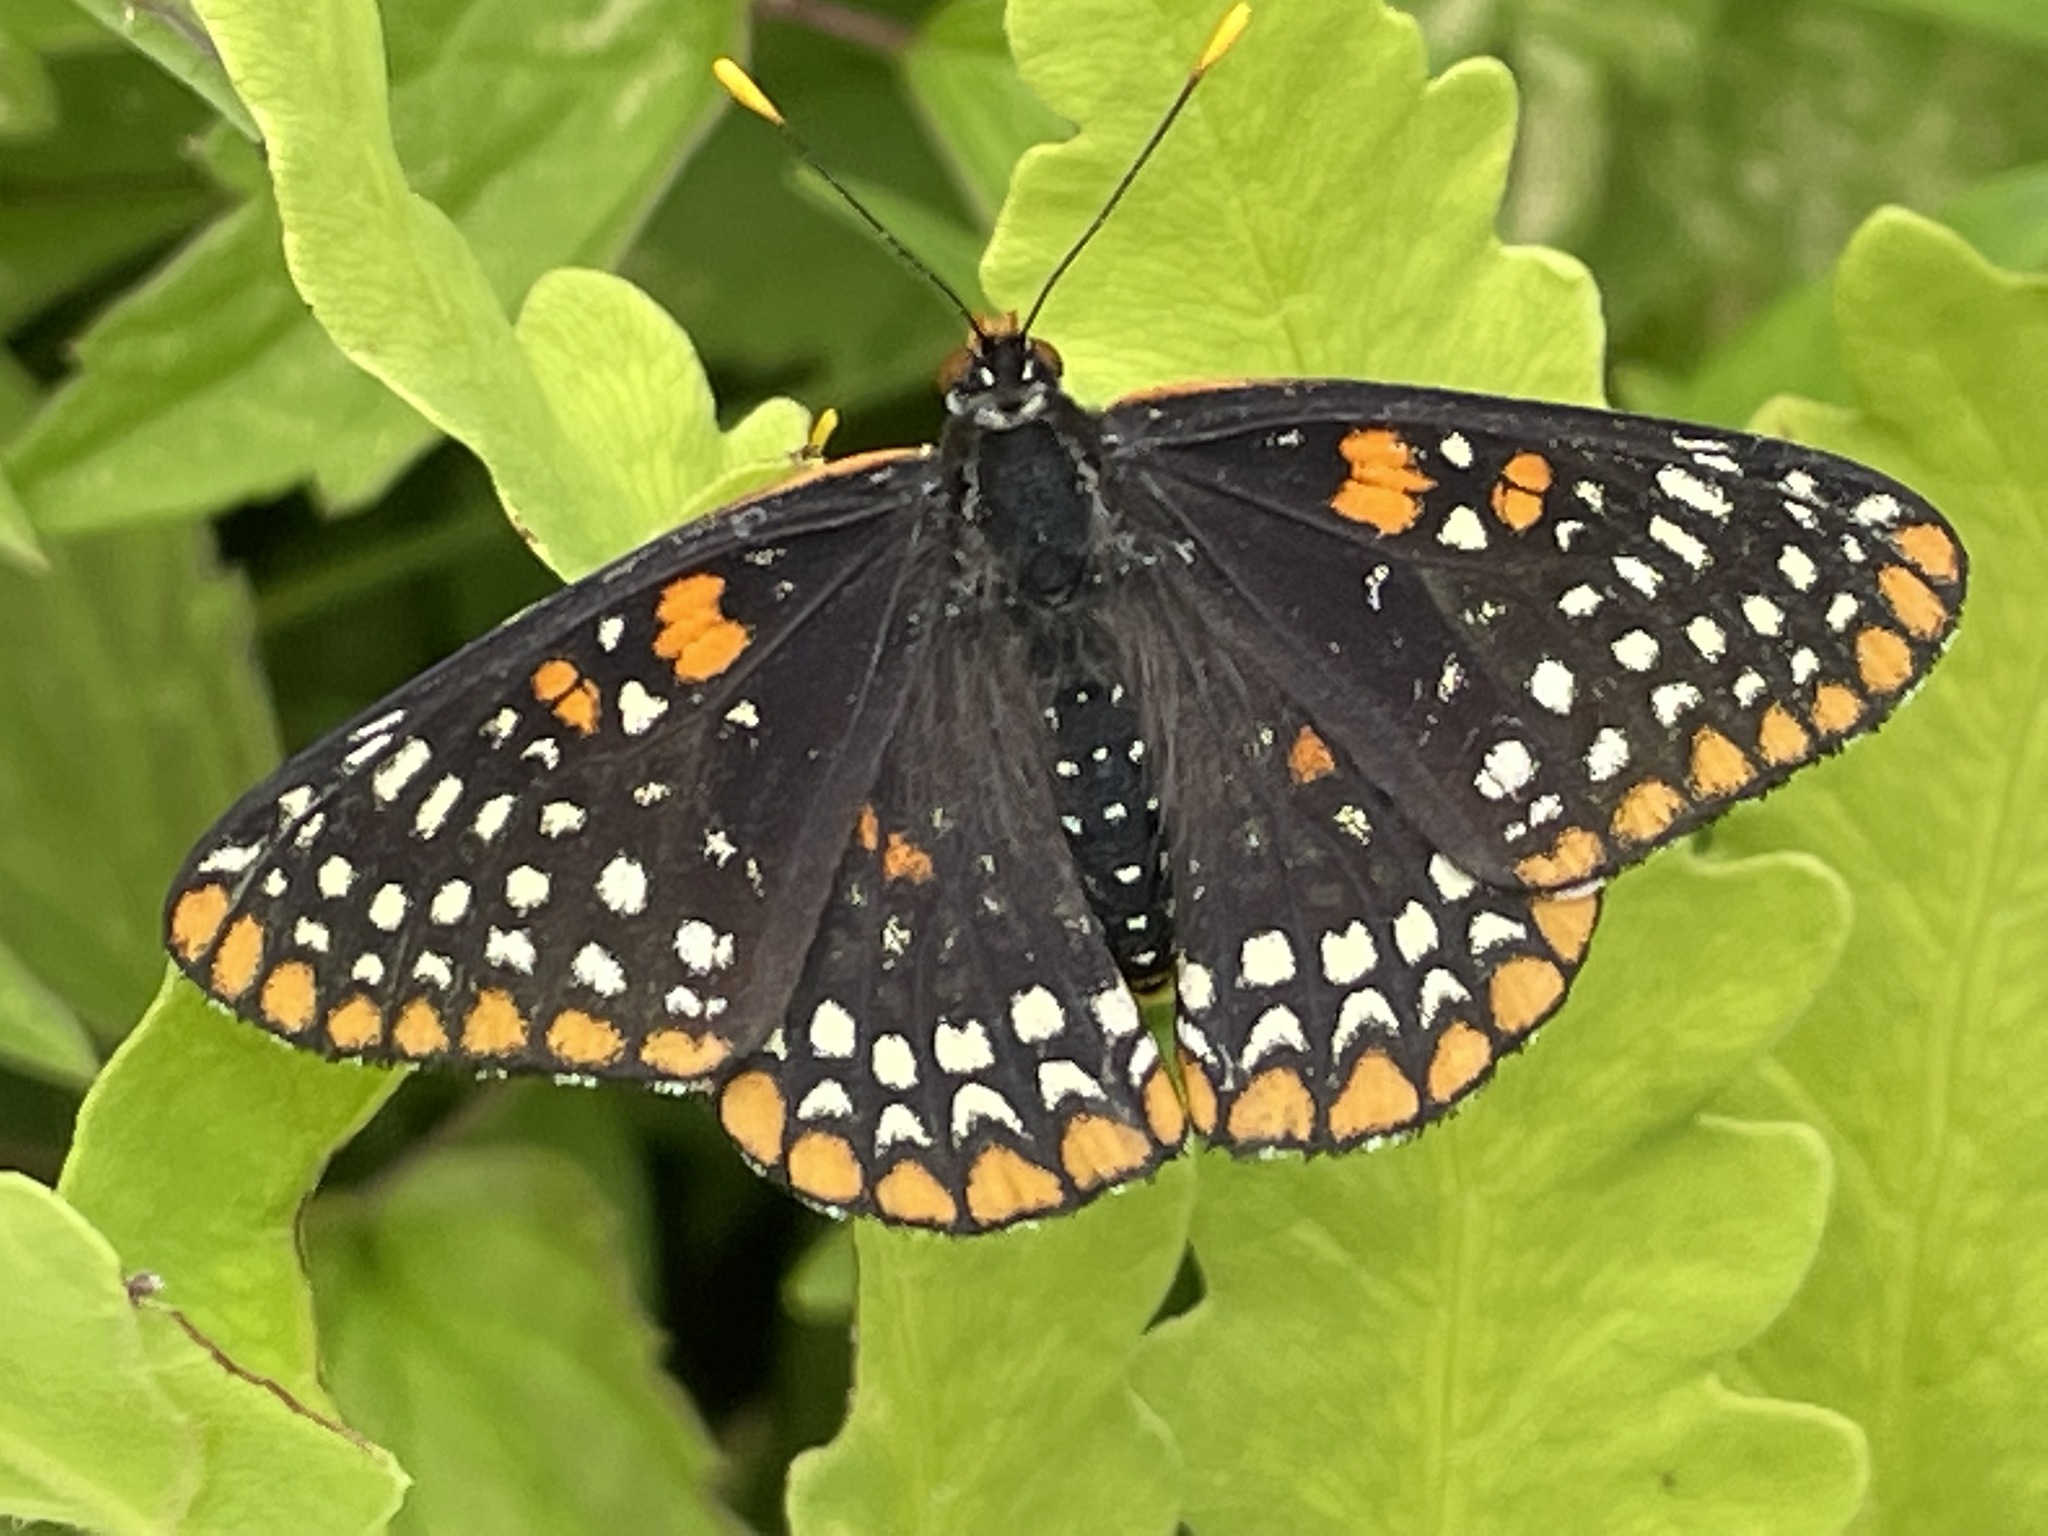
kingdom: Animalia
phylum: Arthropoda
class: Insecta
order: Lepidoptera
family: Nymphalidae
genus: Euphydryas
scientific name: Euphydryas phaeton
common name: Baltimore checkerspot
